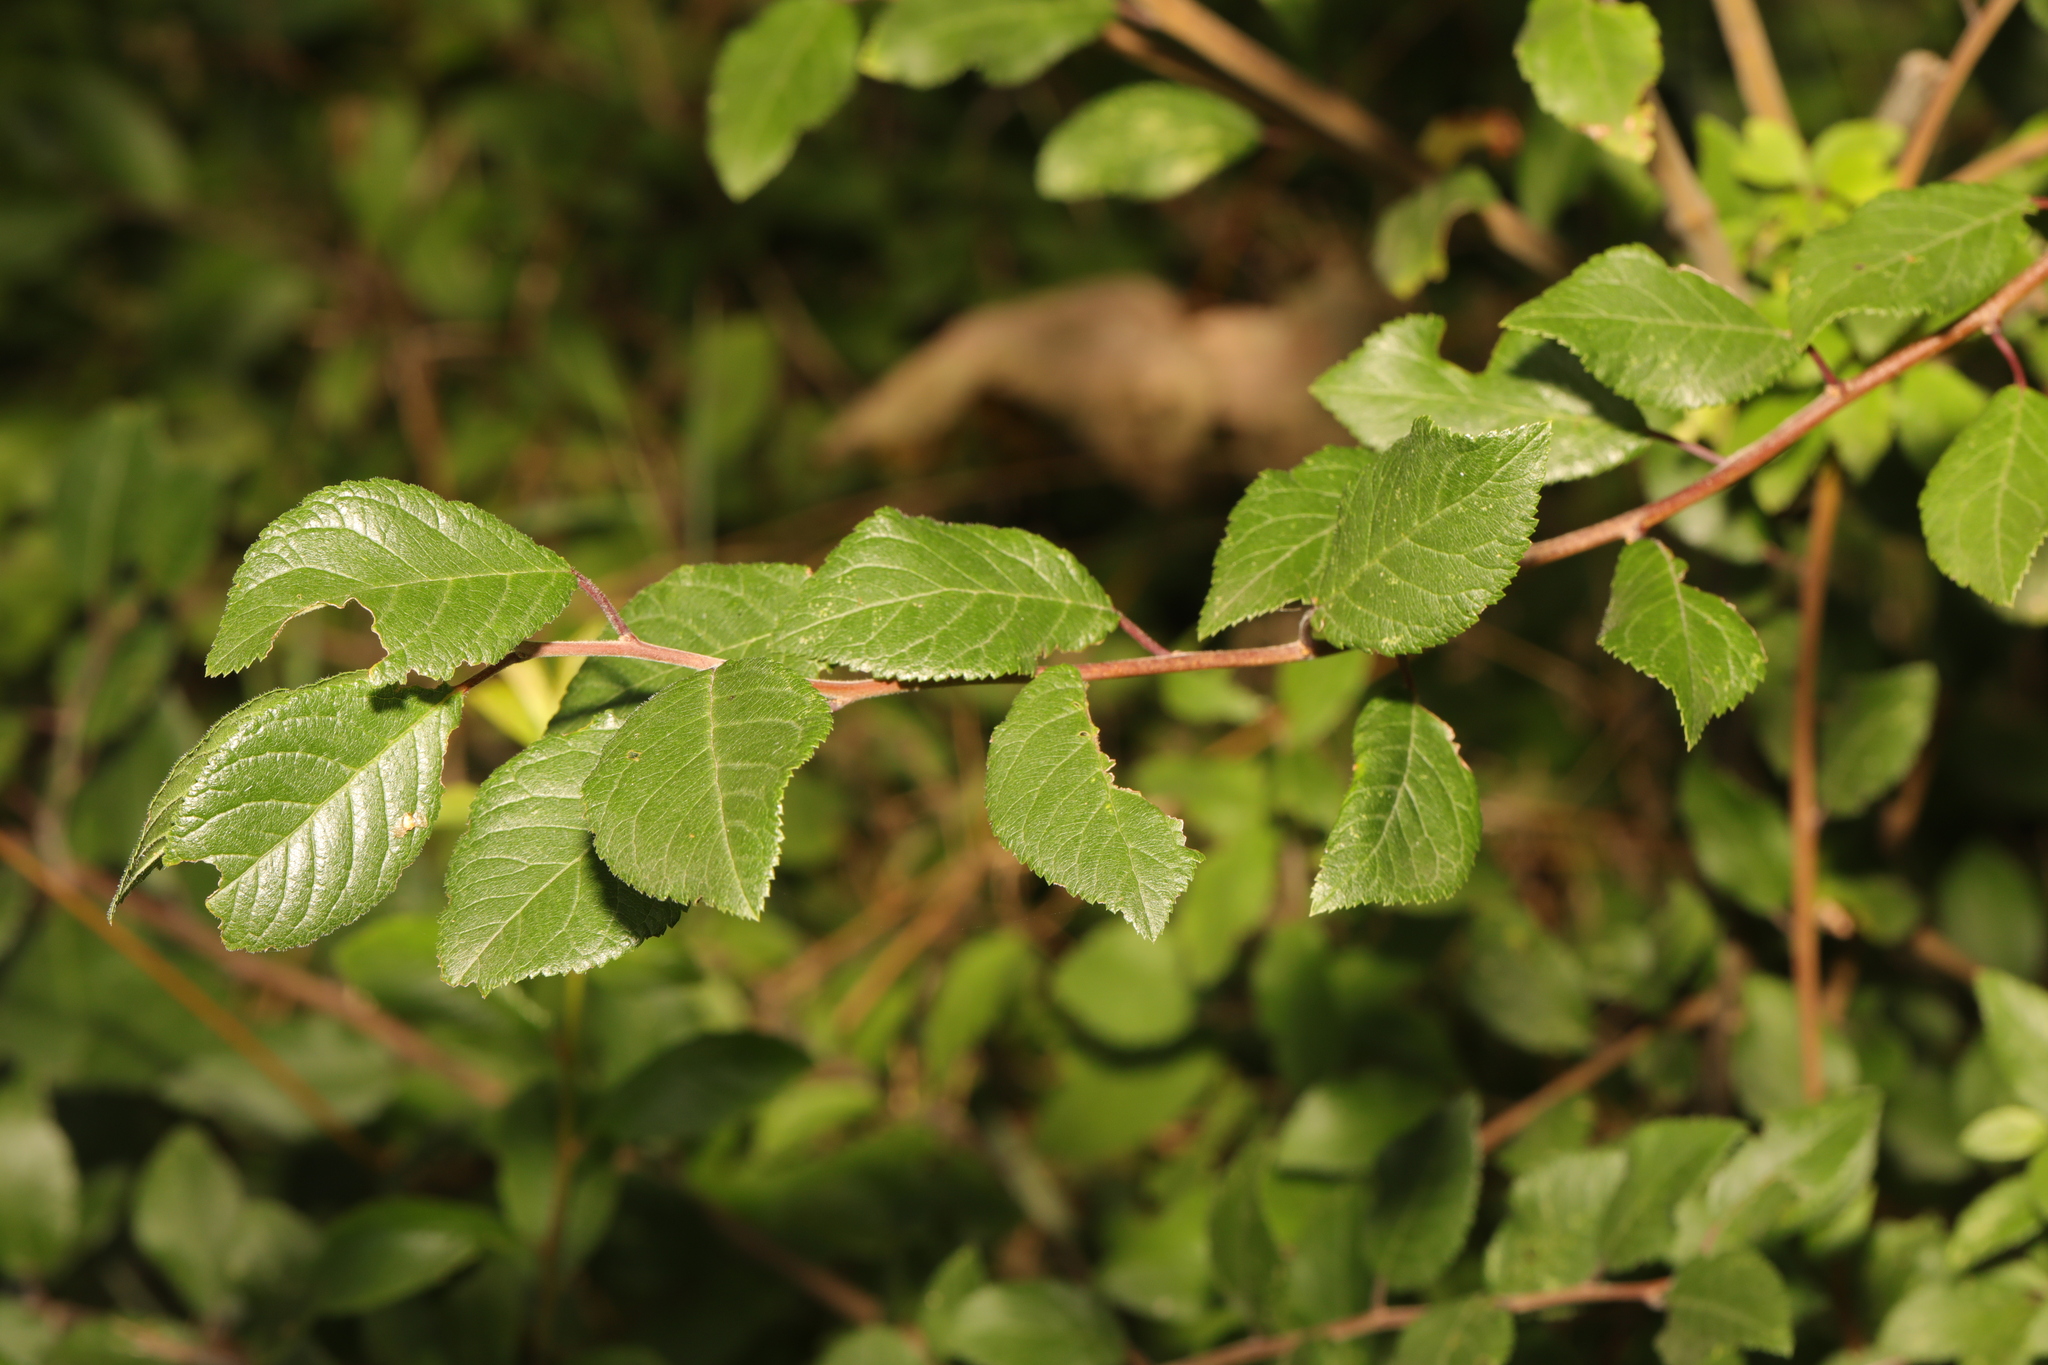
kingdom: Plantae
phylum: Tracheophyta
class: Magnoliopsida
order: Rosales
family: Rosaceae
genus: Prunus
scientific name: Prunus spinosa
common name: Blackthorn
